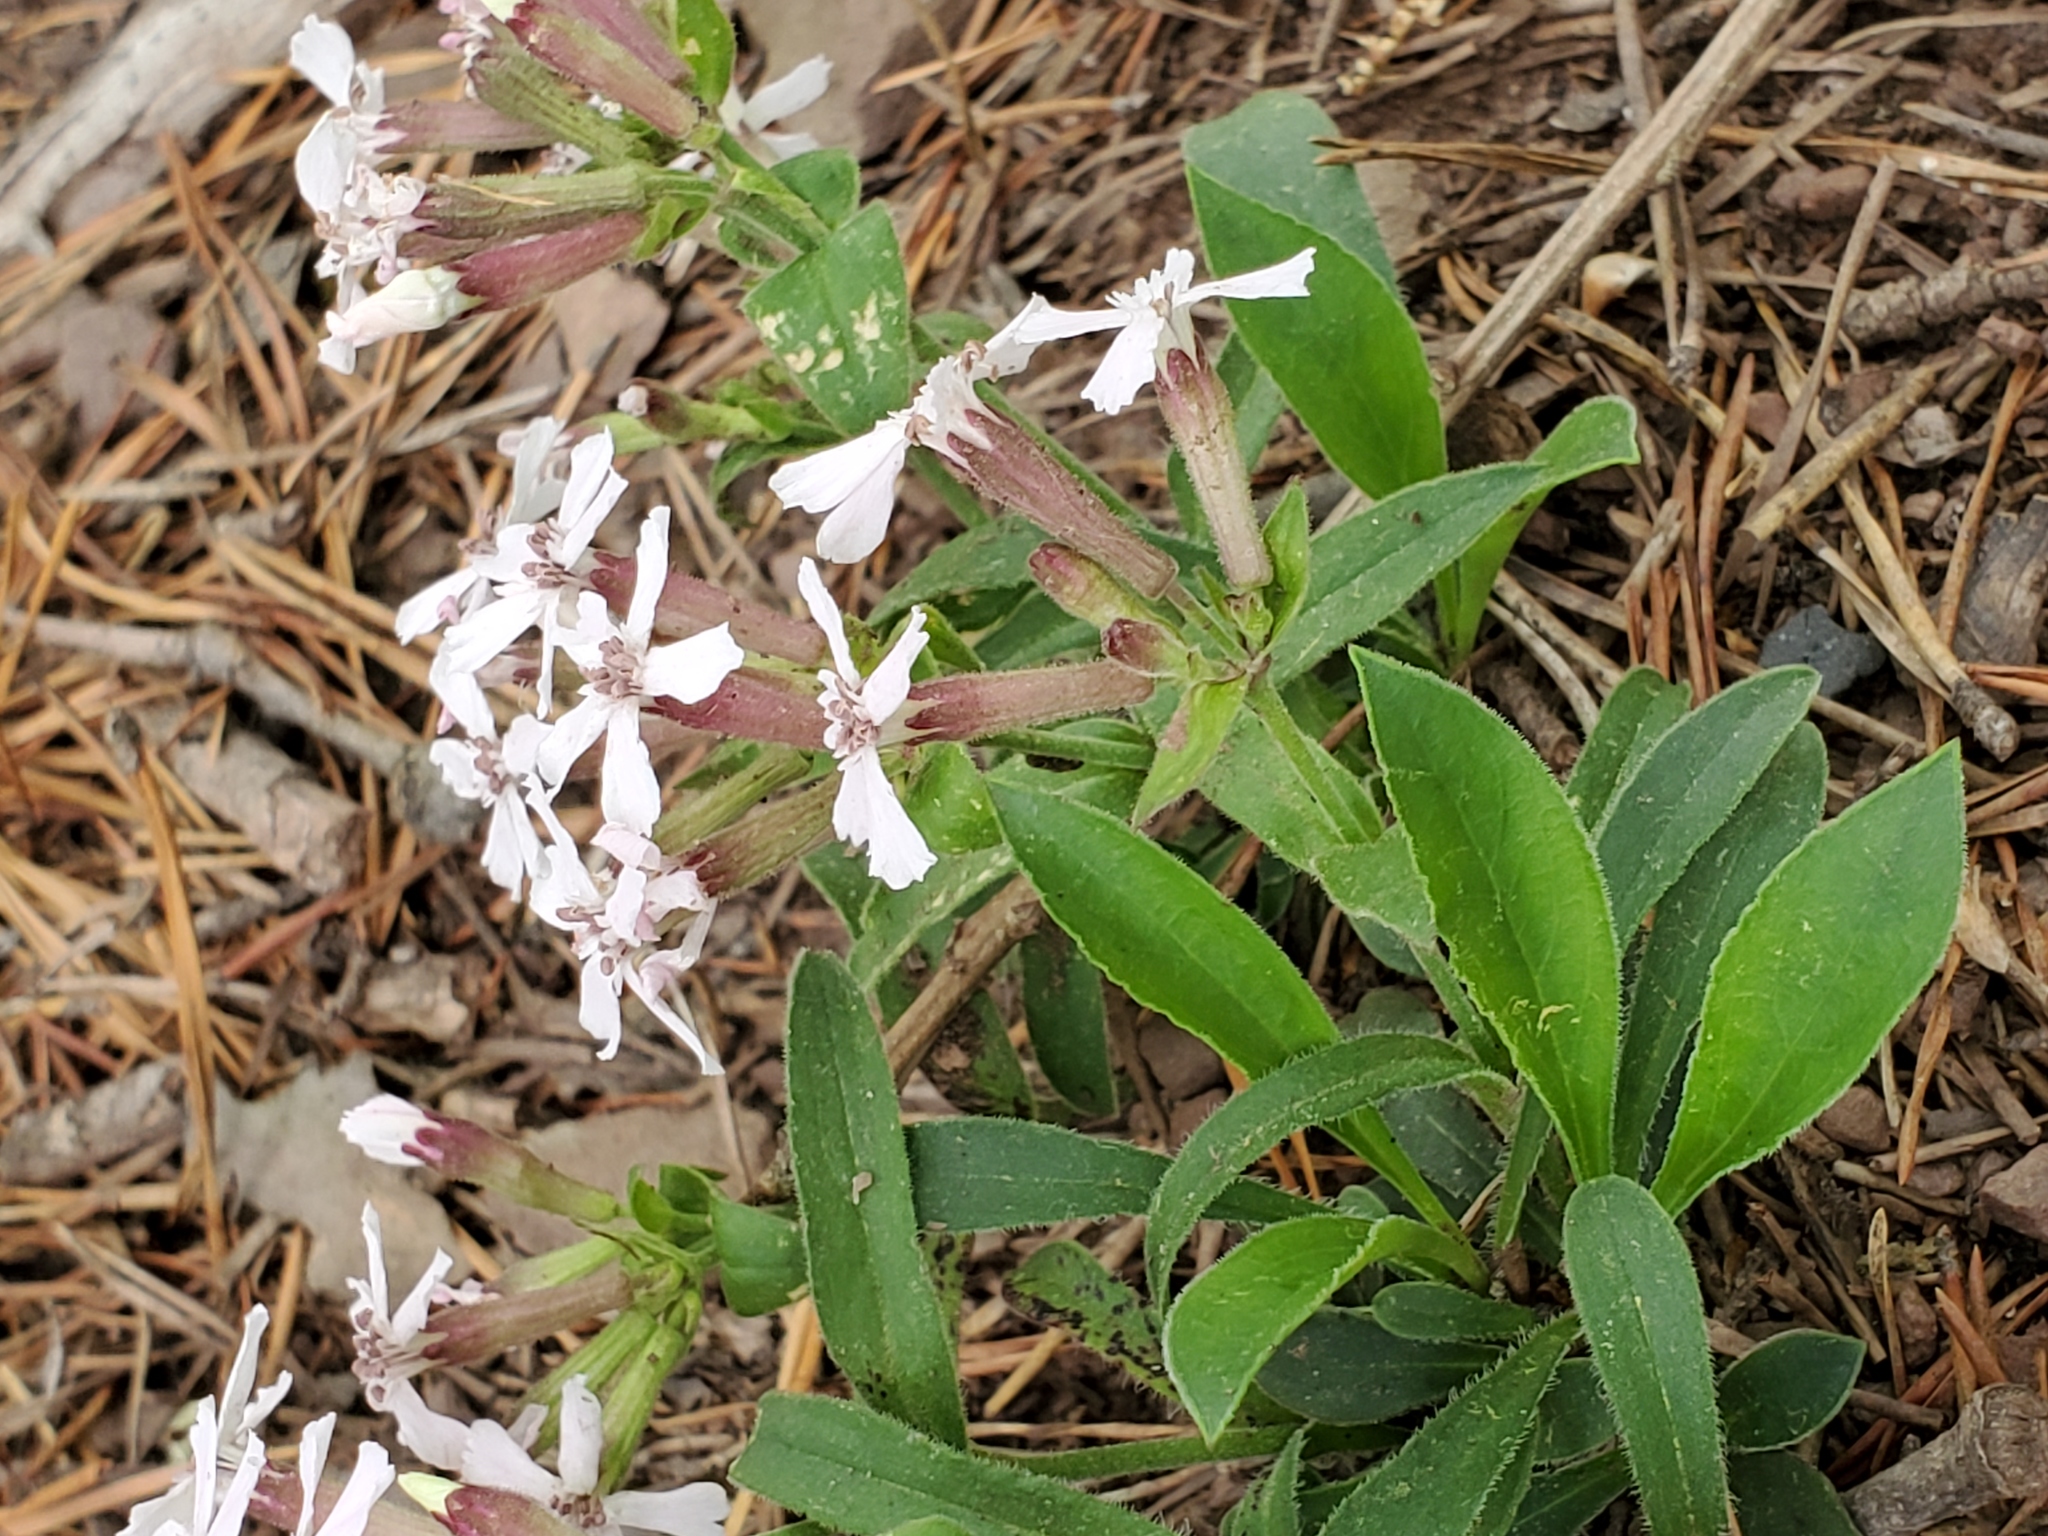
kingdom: Plantae
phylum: Tracheophyta
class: Magnoliopsida
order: Caryophyllales
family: Caryophyllaceae
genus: Silene
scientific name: Silene caroliniana
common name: Sticky catchfly
